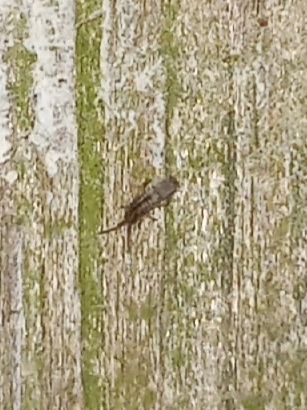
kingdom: Animalia
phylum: Arthropoda
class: Collembola
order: Entomobryomorpha
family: Entomobryidae
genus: Homidia
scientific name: Homidia socia
